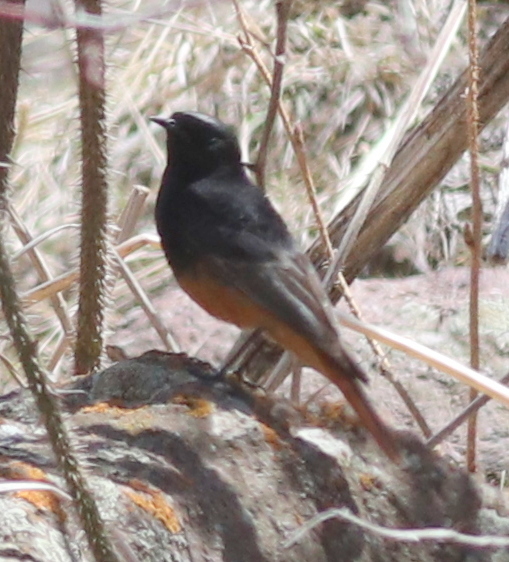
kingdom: Animalia
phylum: Chordata
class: Aves
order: Passeriformes
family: Muscicapidae
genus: Phoenicurus
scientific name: Phoenicurus ochruros
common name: Black redstart
